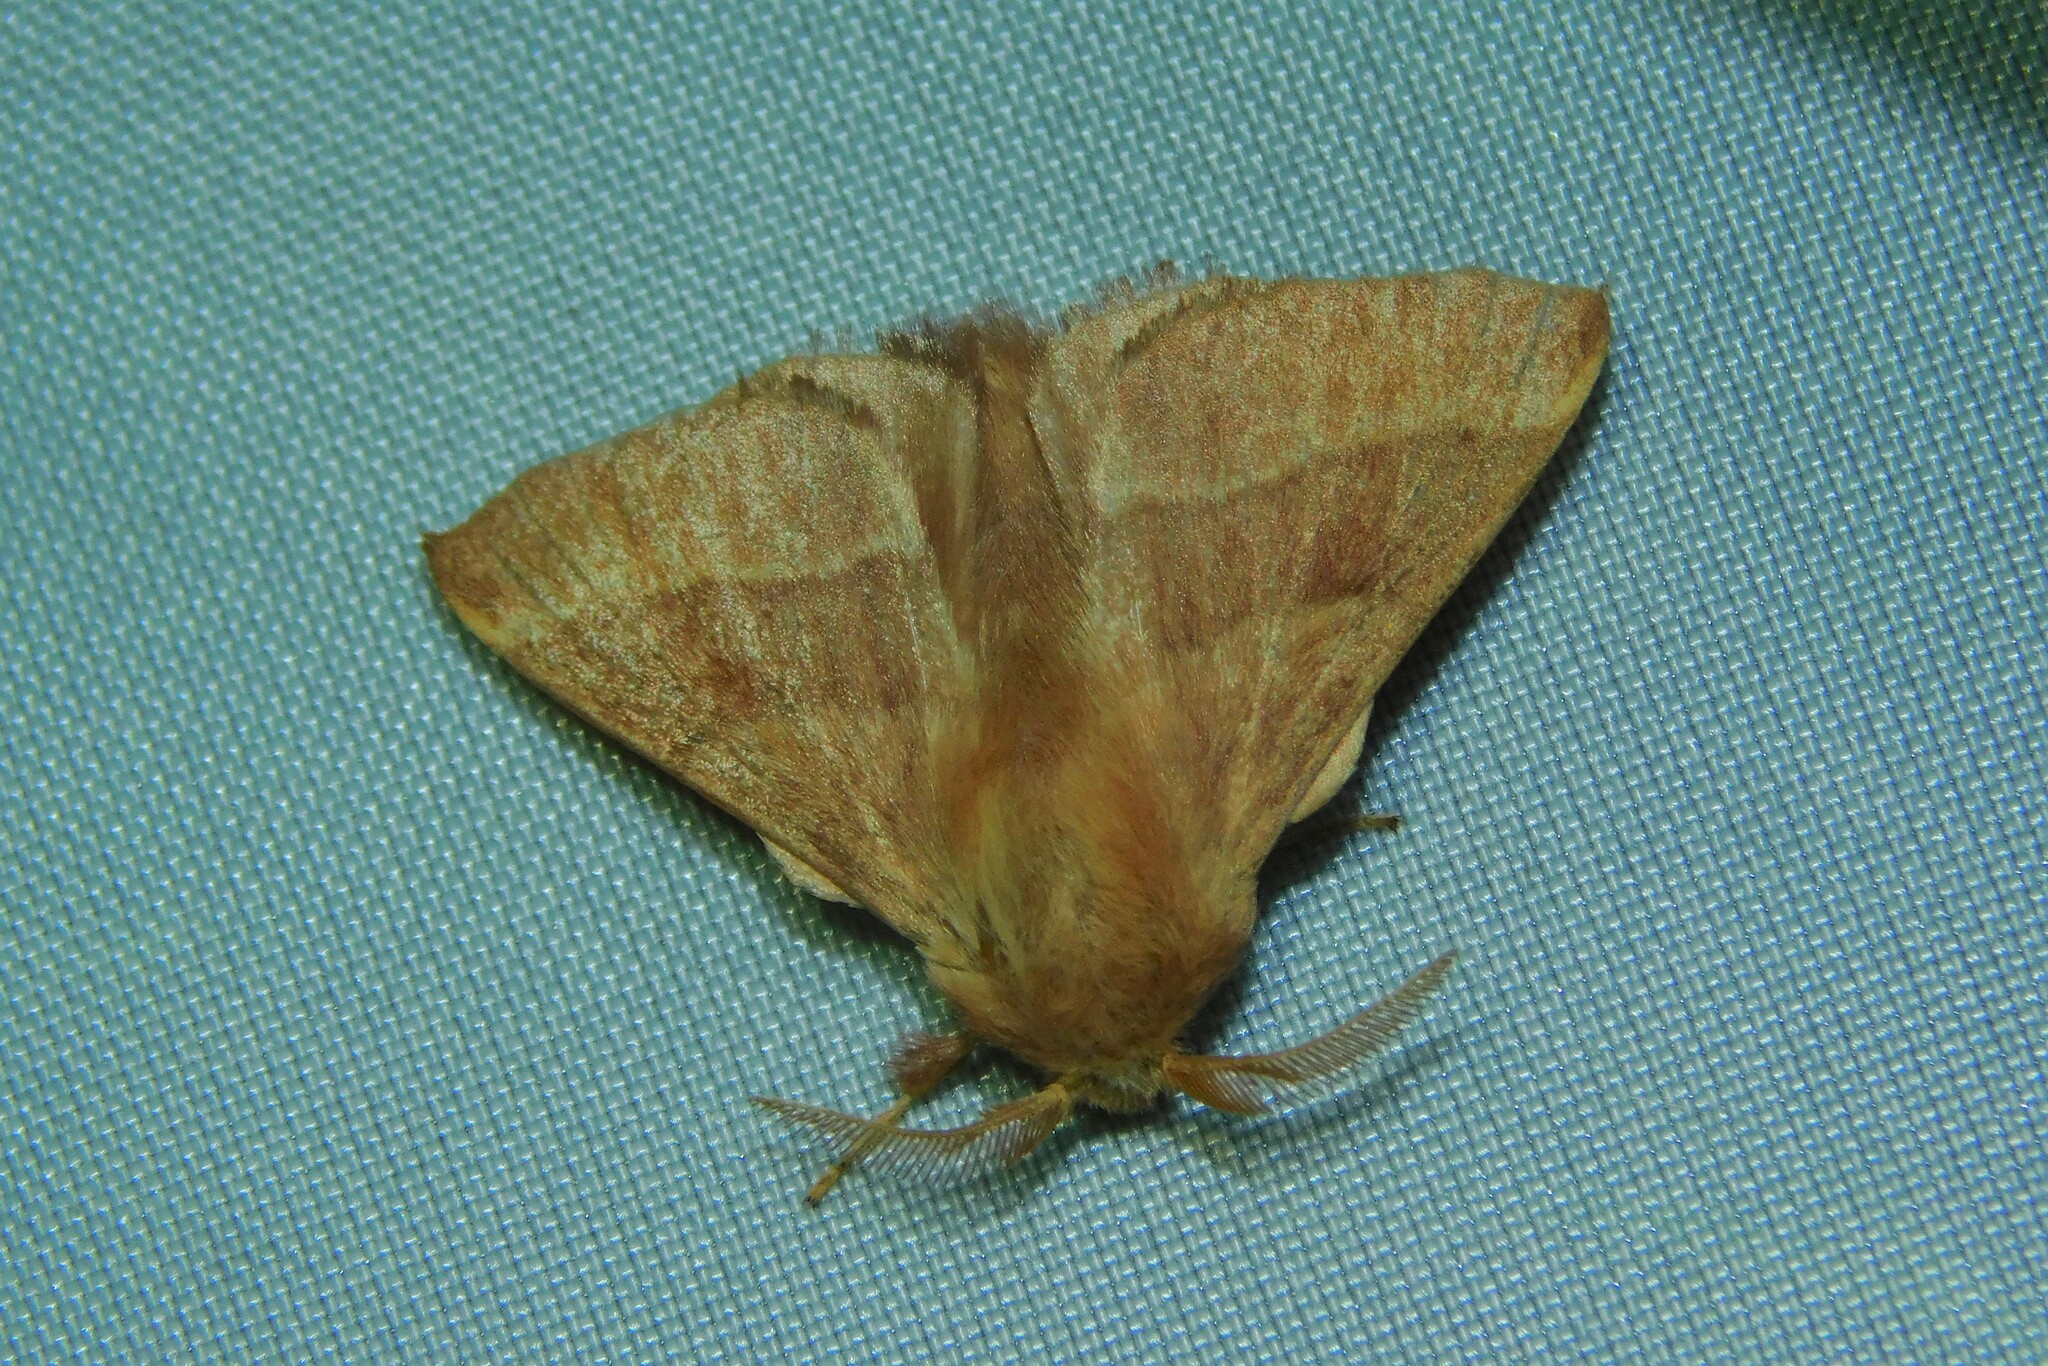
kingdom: Animalia
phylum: Arthropoda
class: Insecta
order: Lepidoptera
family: Lasiocampidae
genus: Malacosoma
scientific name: Malacosoma neustria
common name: The lackey
